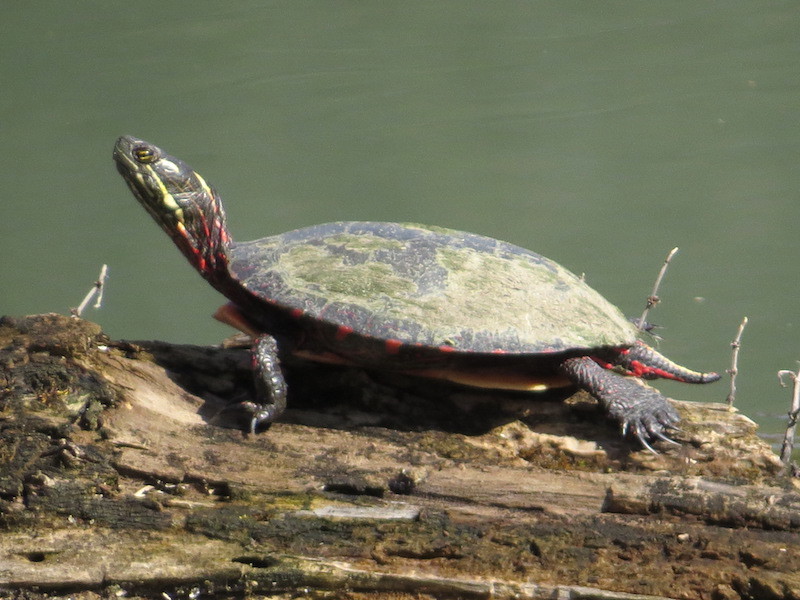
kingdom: Animalia
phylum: Chordata
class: Testudines
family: Emydidae
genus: Chrysemys
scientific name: Chrysemys picta
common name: Painted turtle
